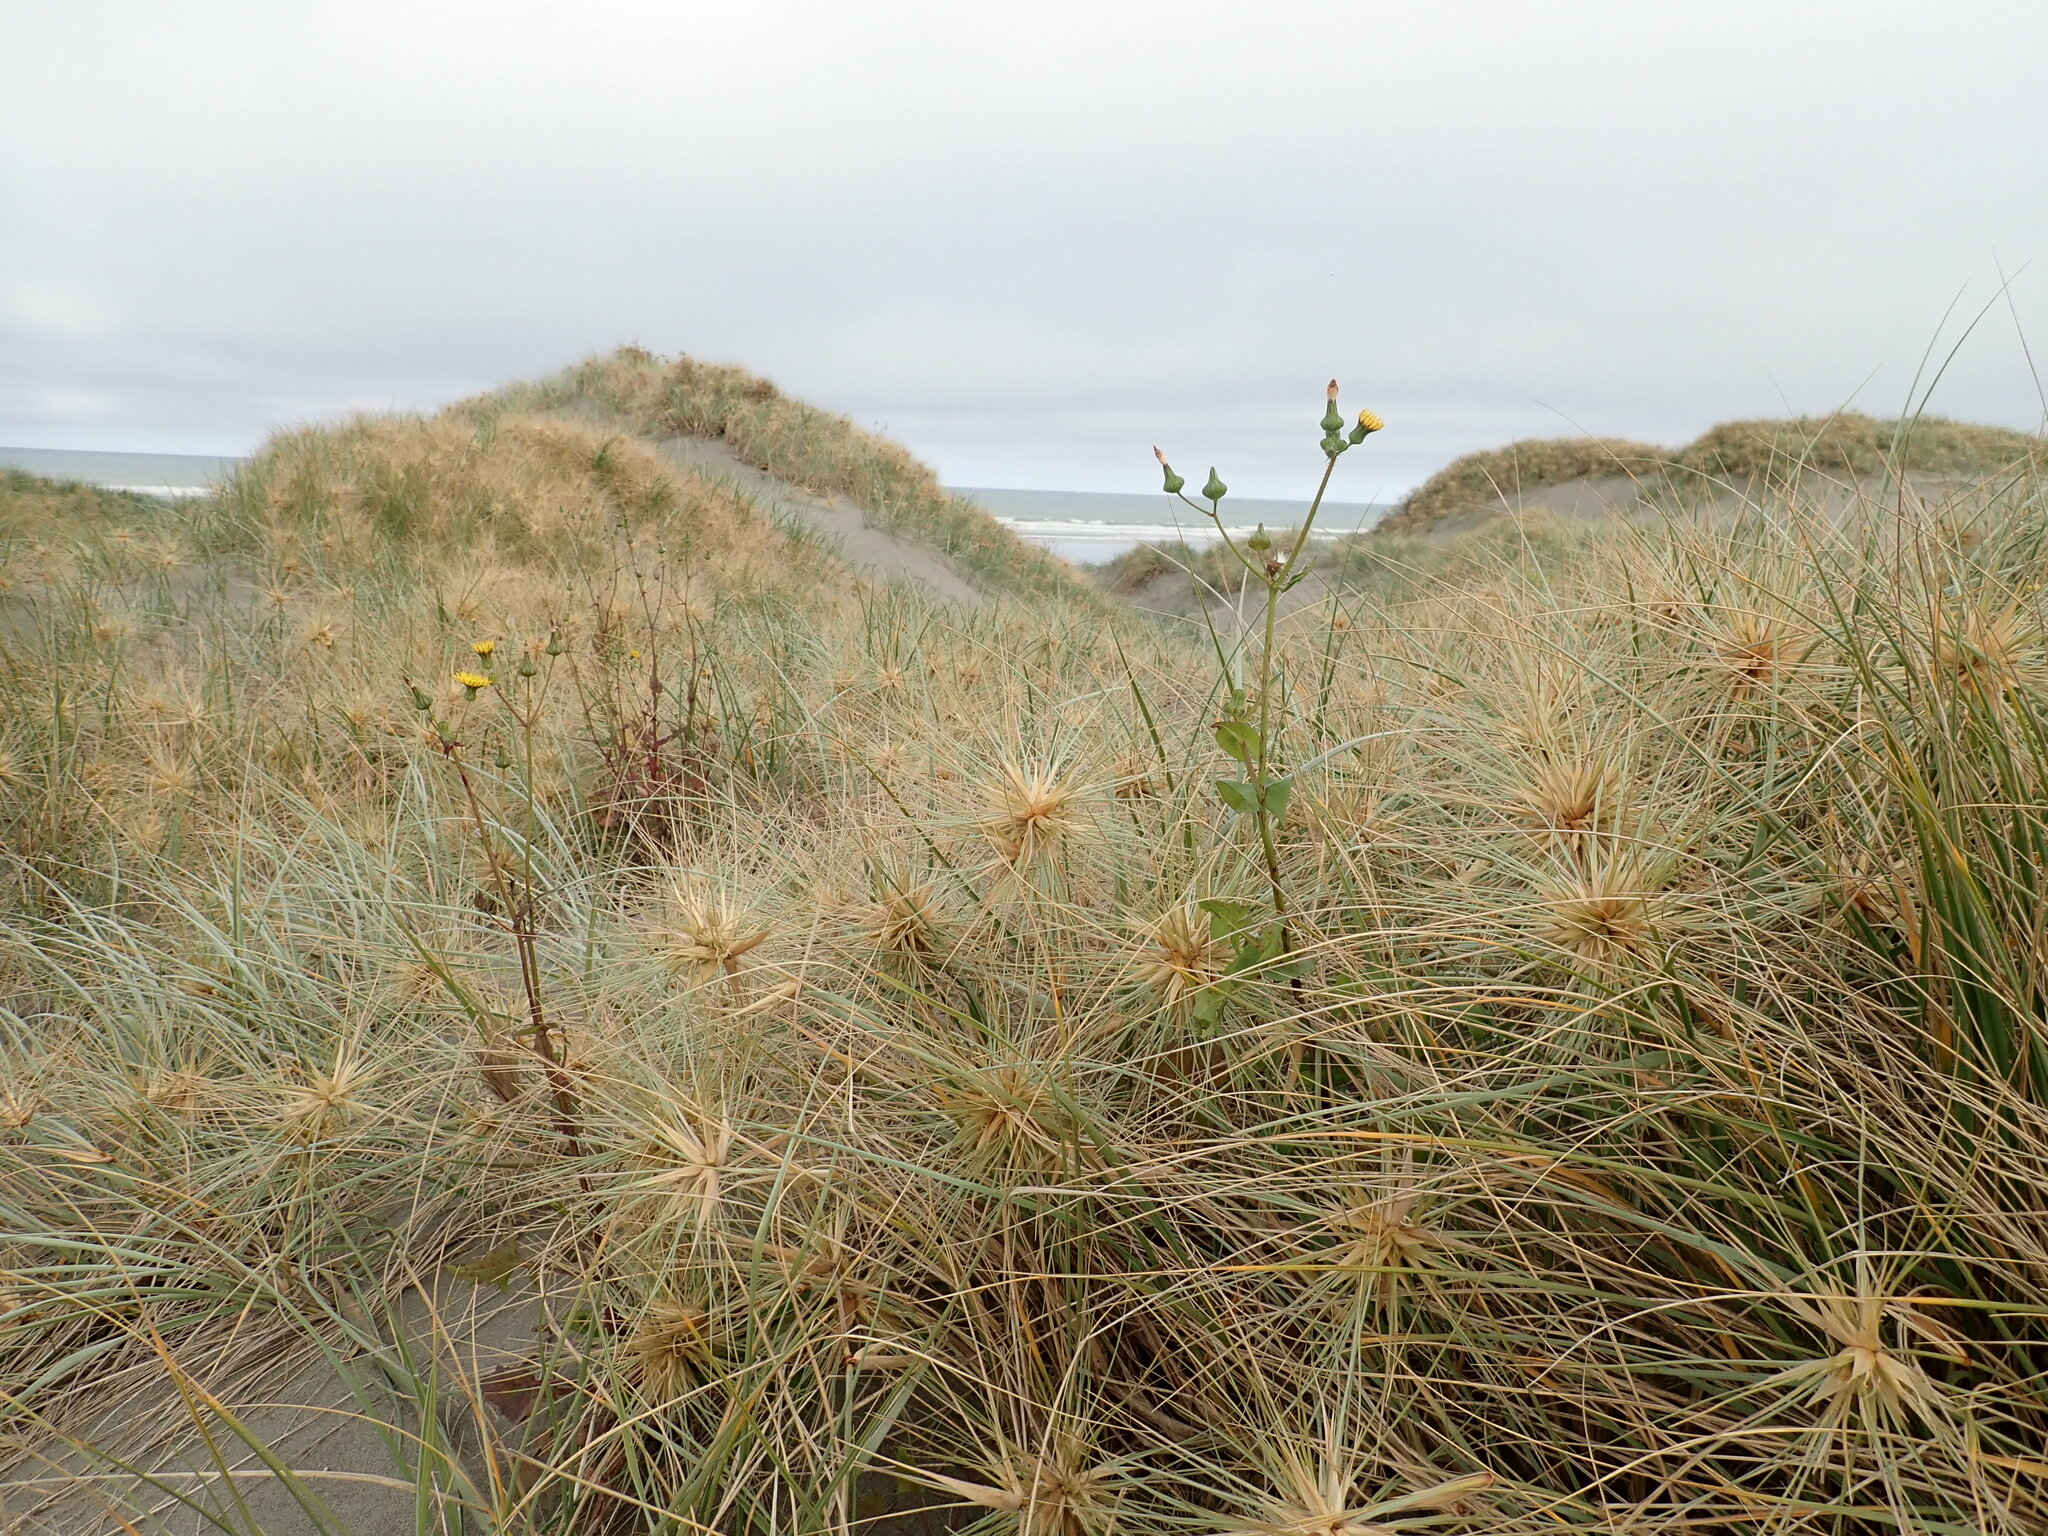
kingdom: Plantae
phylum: Tracheophyta
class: Magnoliopsida
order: Asterales
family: Asteraceae
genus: Sonchus
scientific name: Sonchus oleraceus
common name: Common sowthistle
